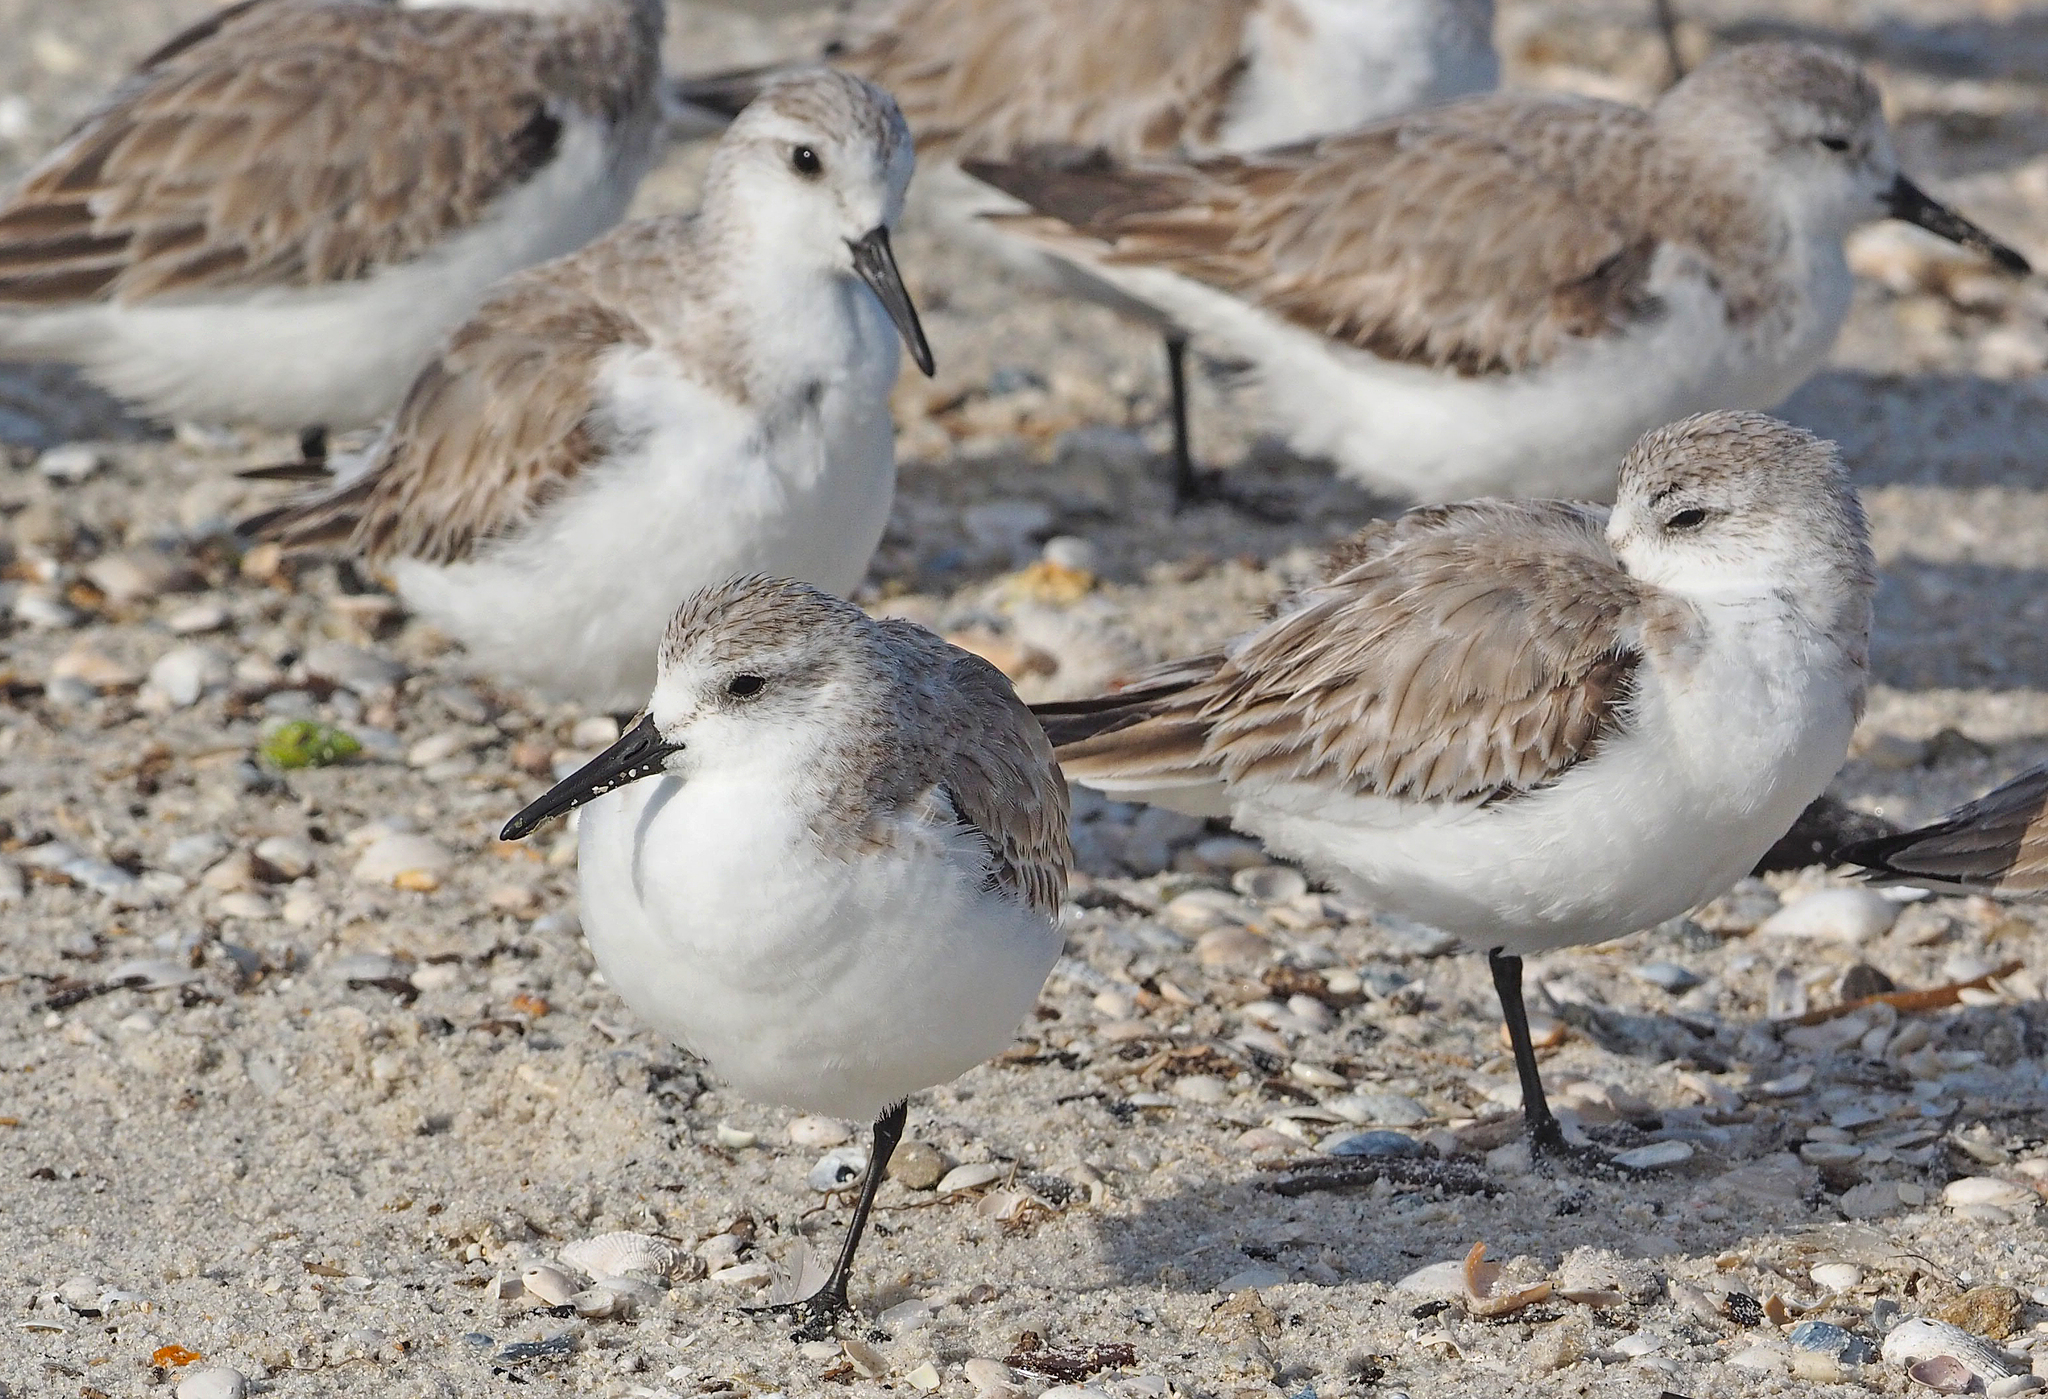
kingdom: Animalia
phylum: Chordata
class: Aves
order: Charadriiformes
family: Scolopacidae
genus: Calidris
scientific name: Calidris alba
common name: Sanderling
